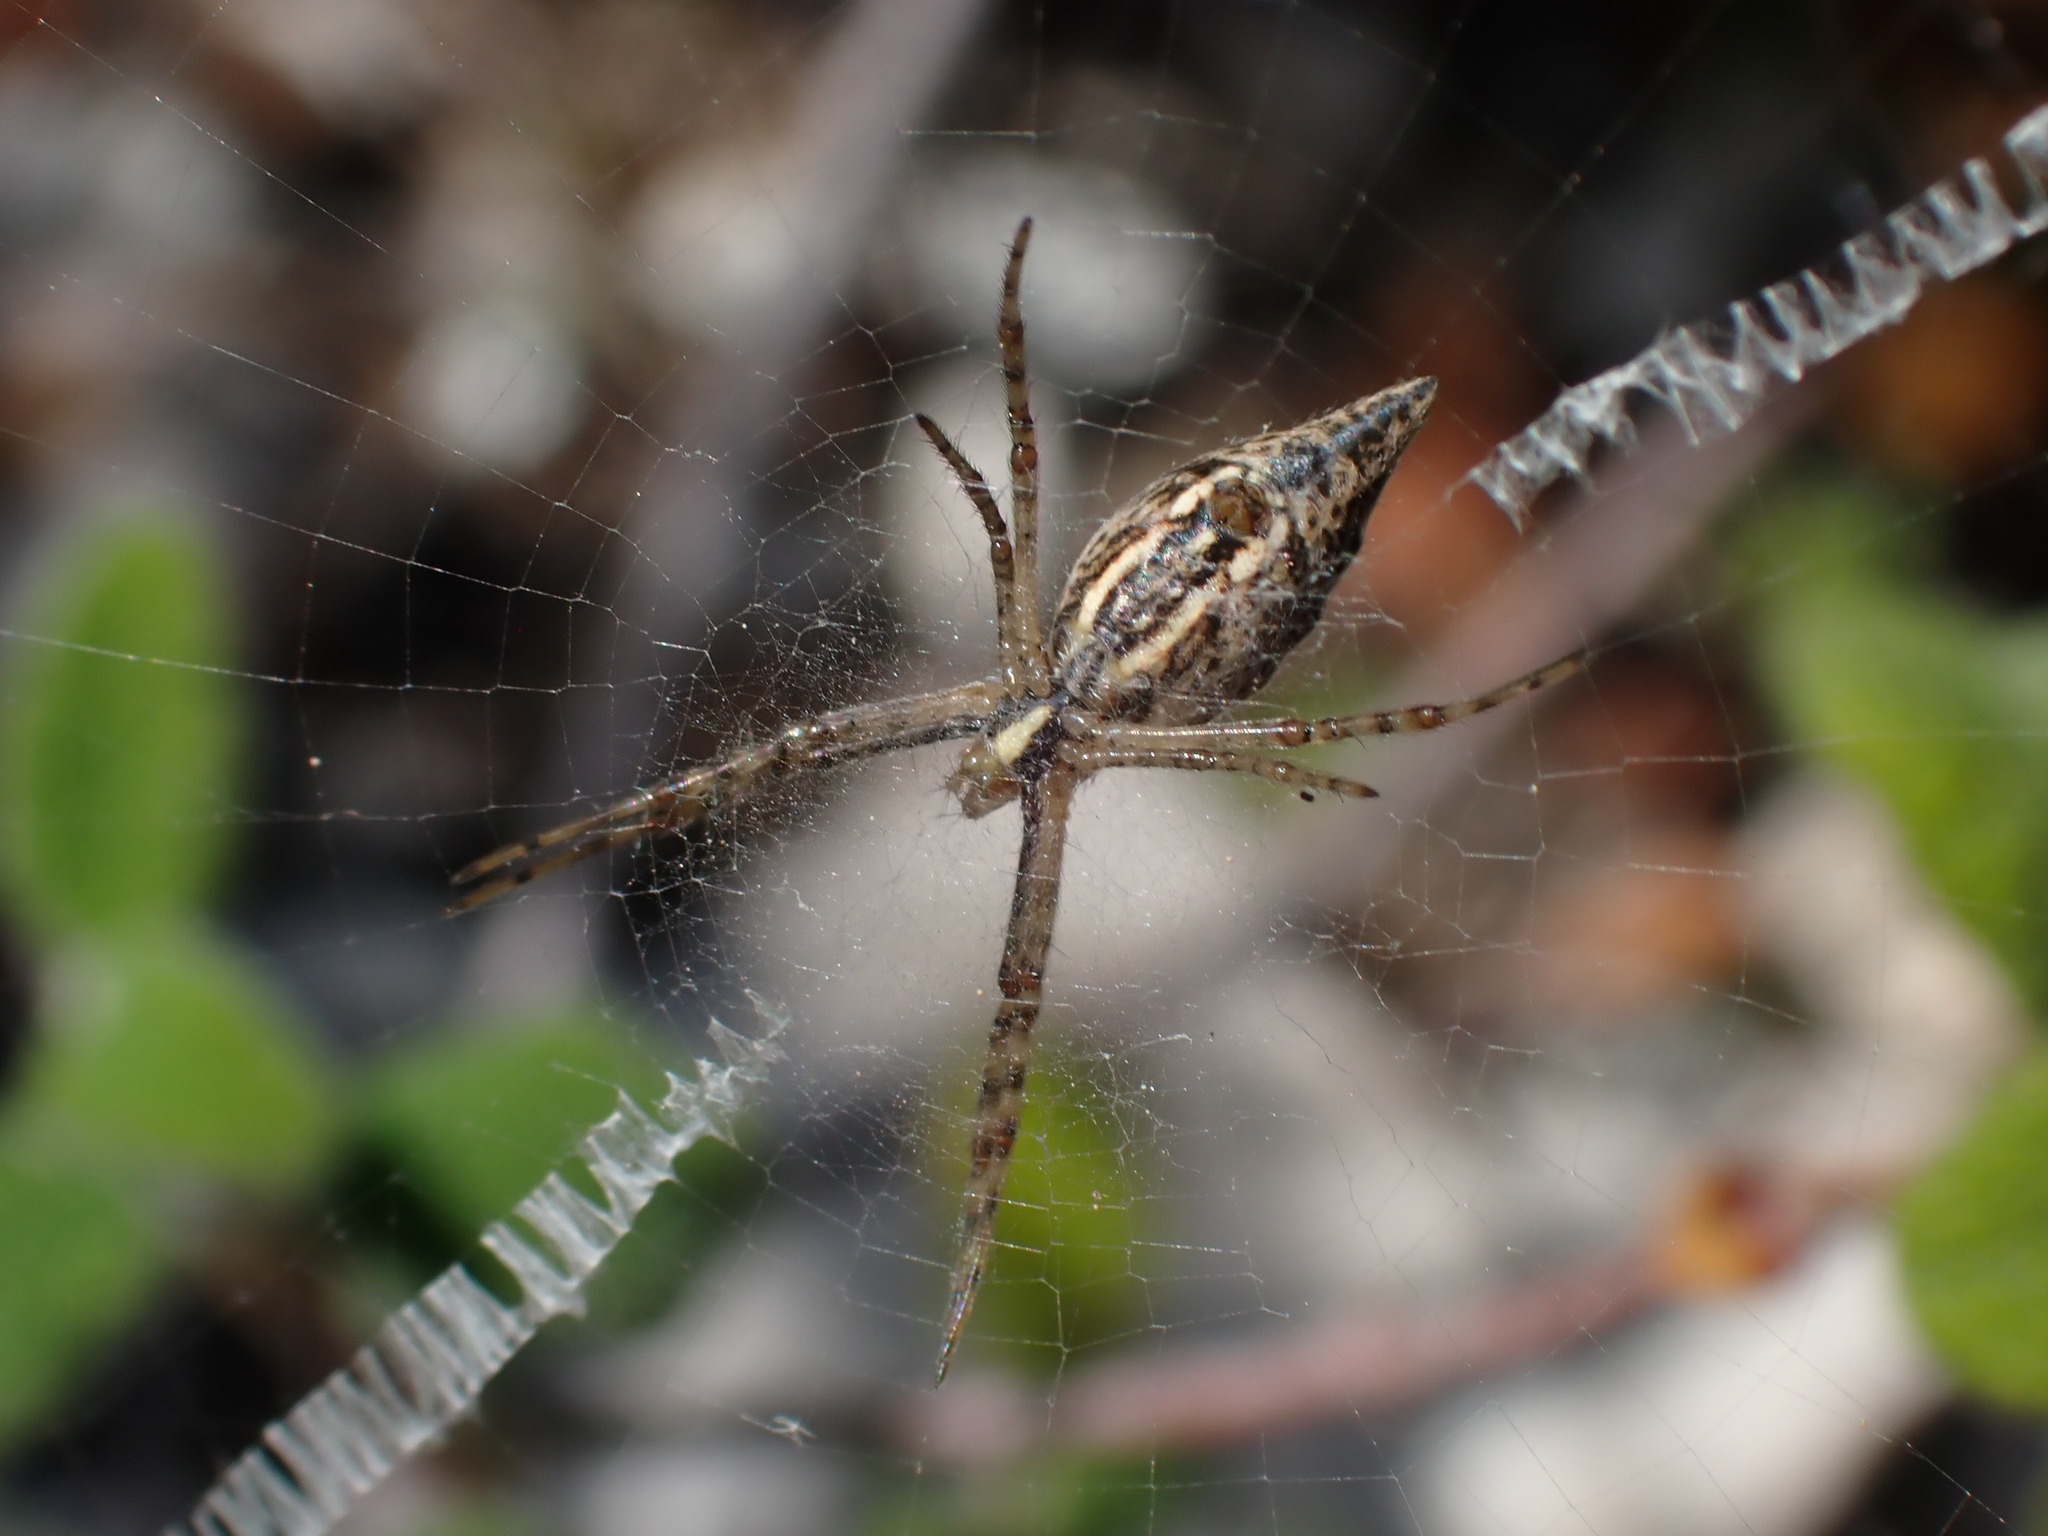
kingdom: Animalia
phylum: Arthropoda
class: Arachnida
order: Araneae
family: Araneidae
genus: Argiope
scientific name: Argiope lobata
